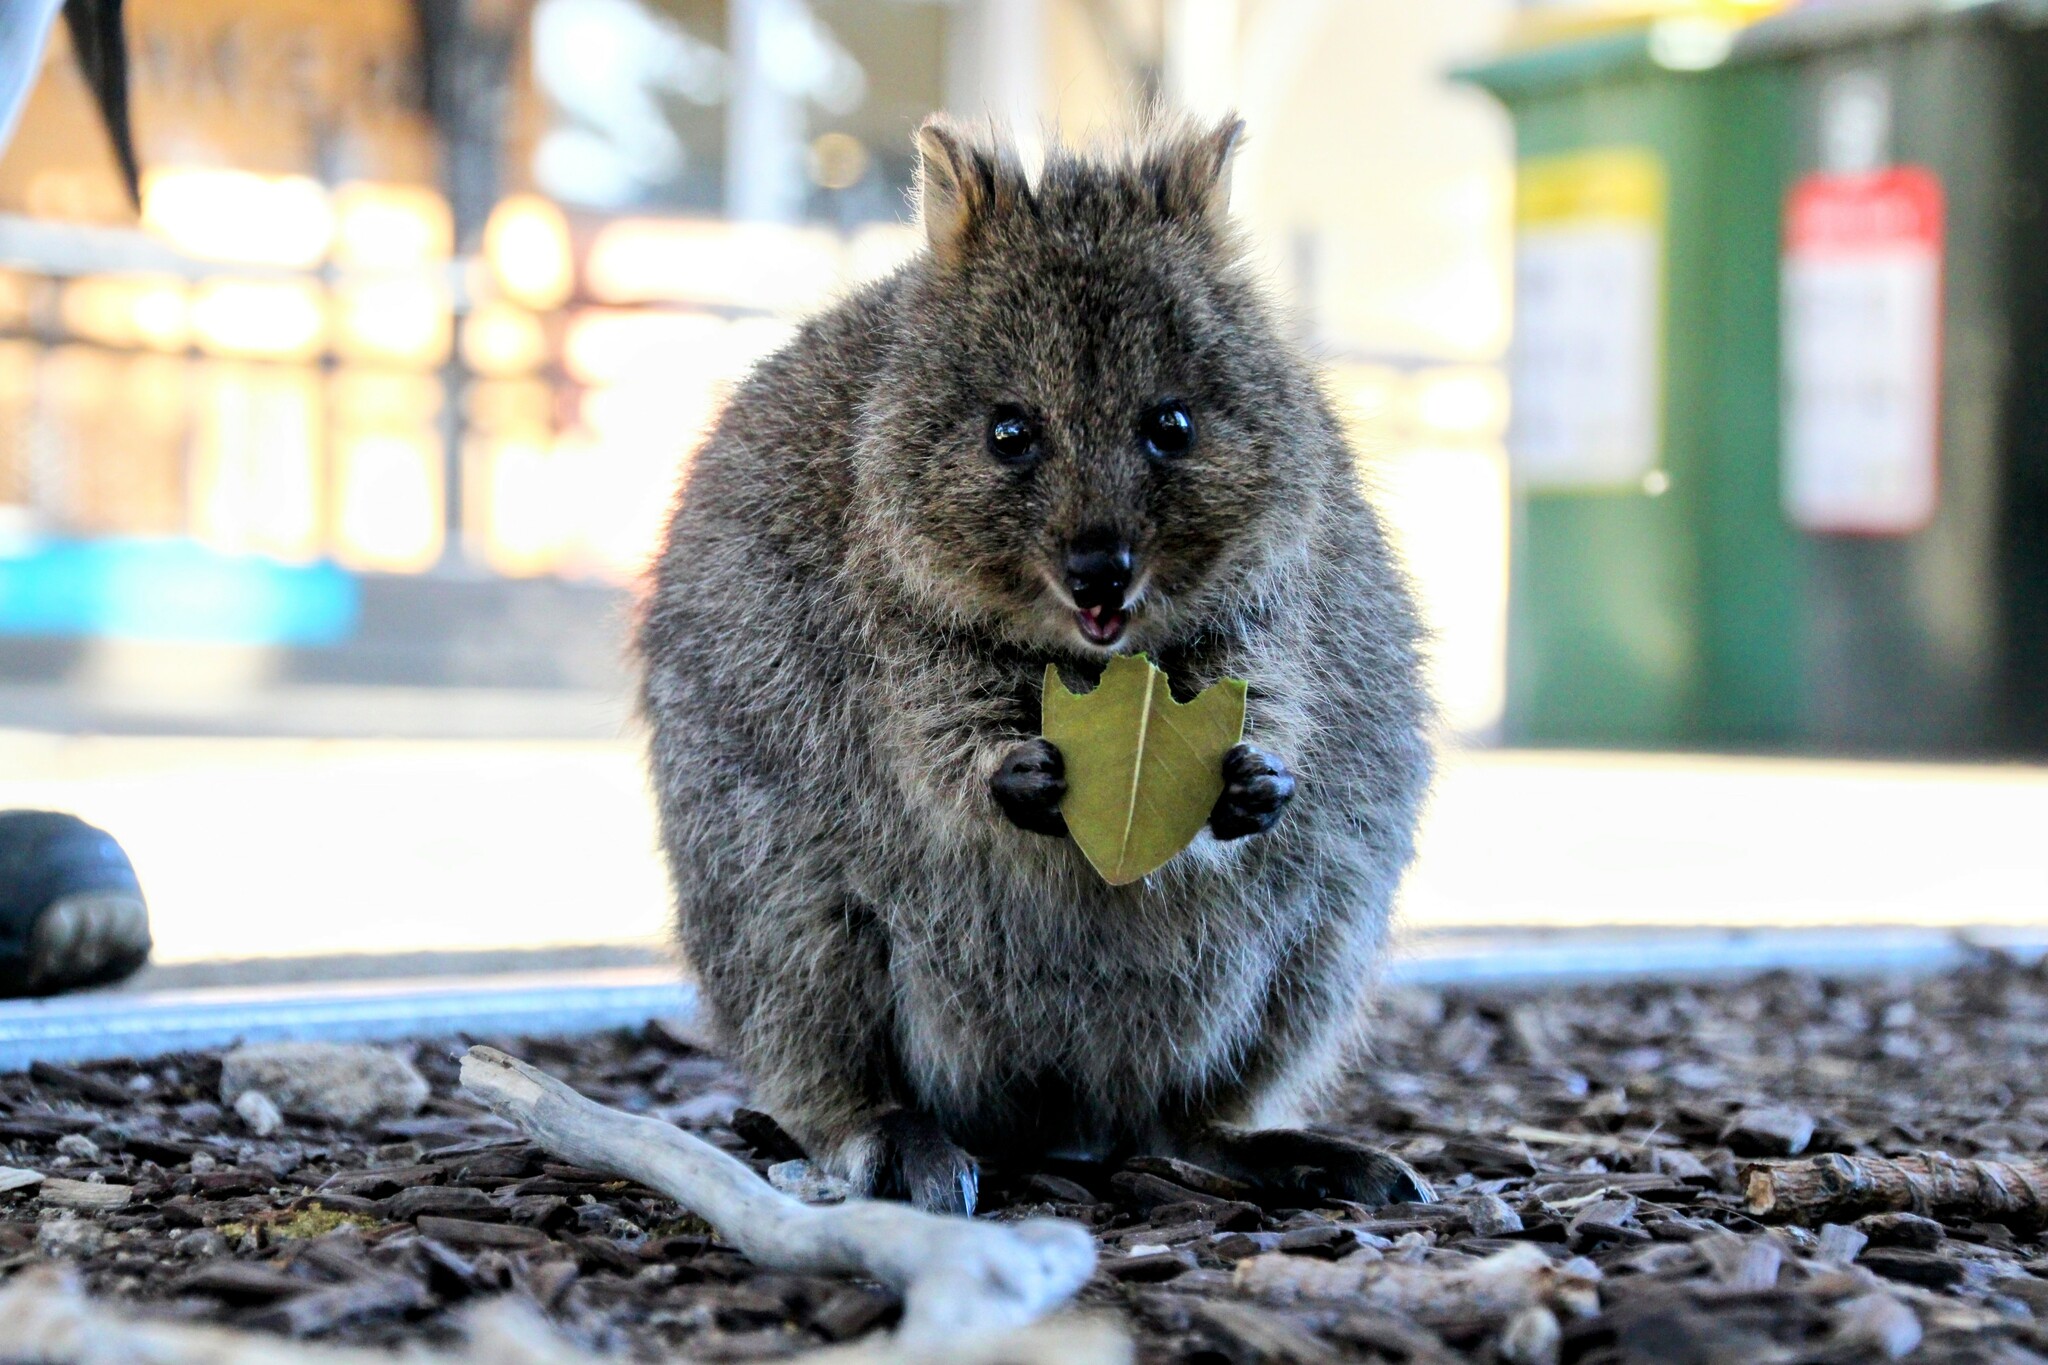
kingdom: Animalia
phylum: Chordata
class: Mammalia
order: Diprotodontia
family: Macropodidae
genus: Setonix
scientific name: Setonix brachyurus
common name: Quokka
